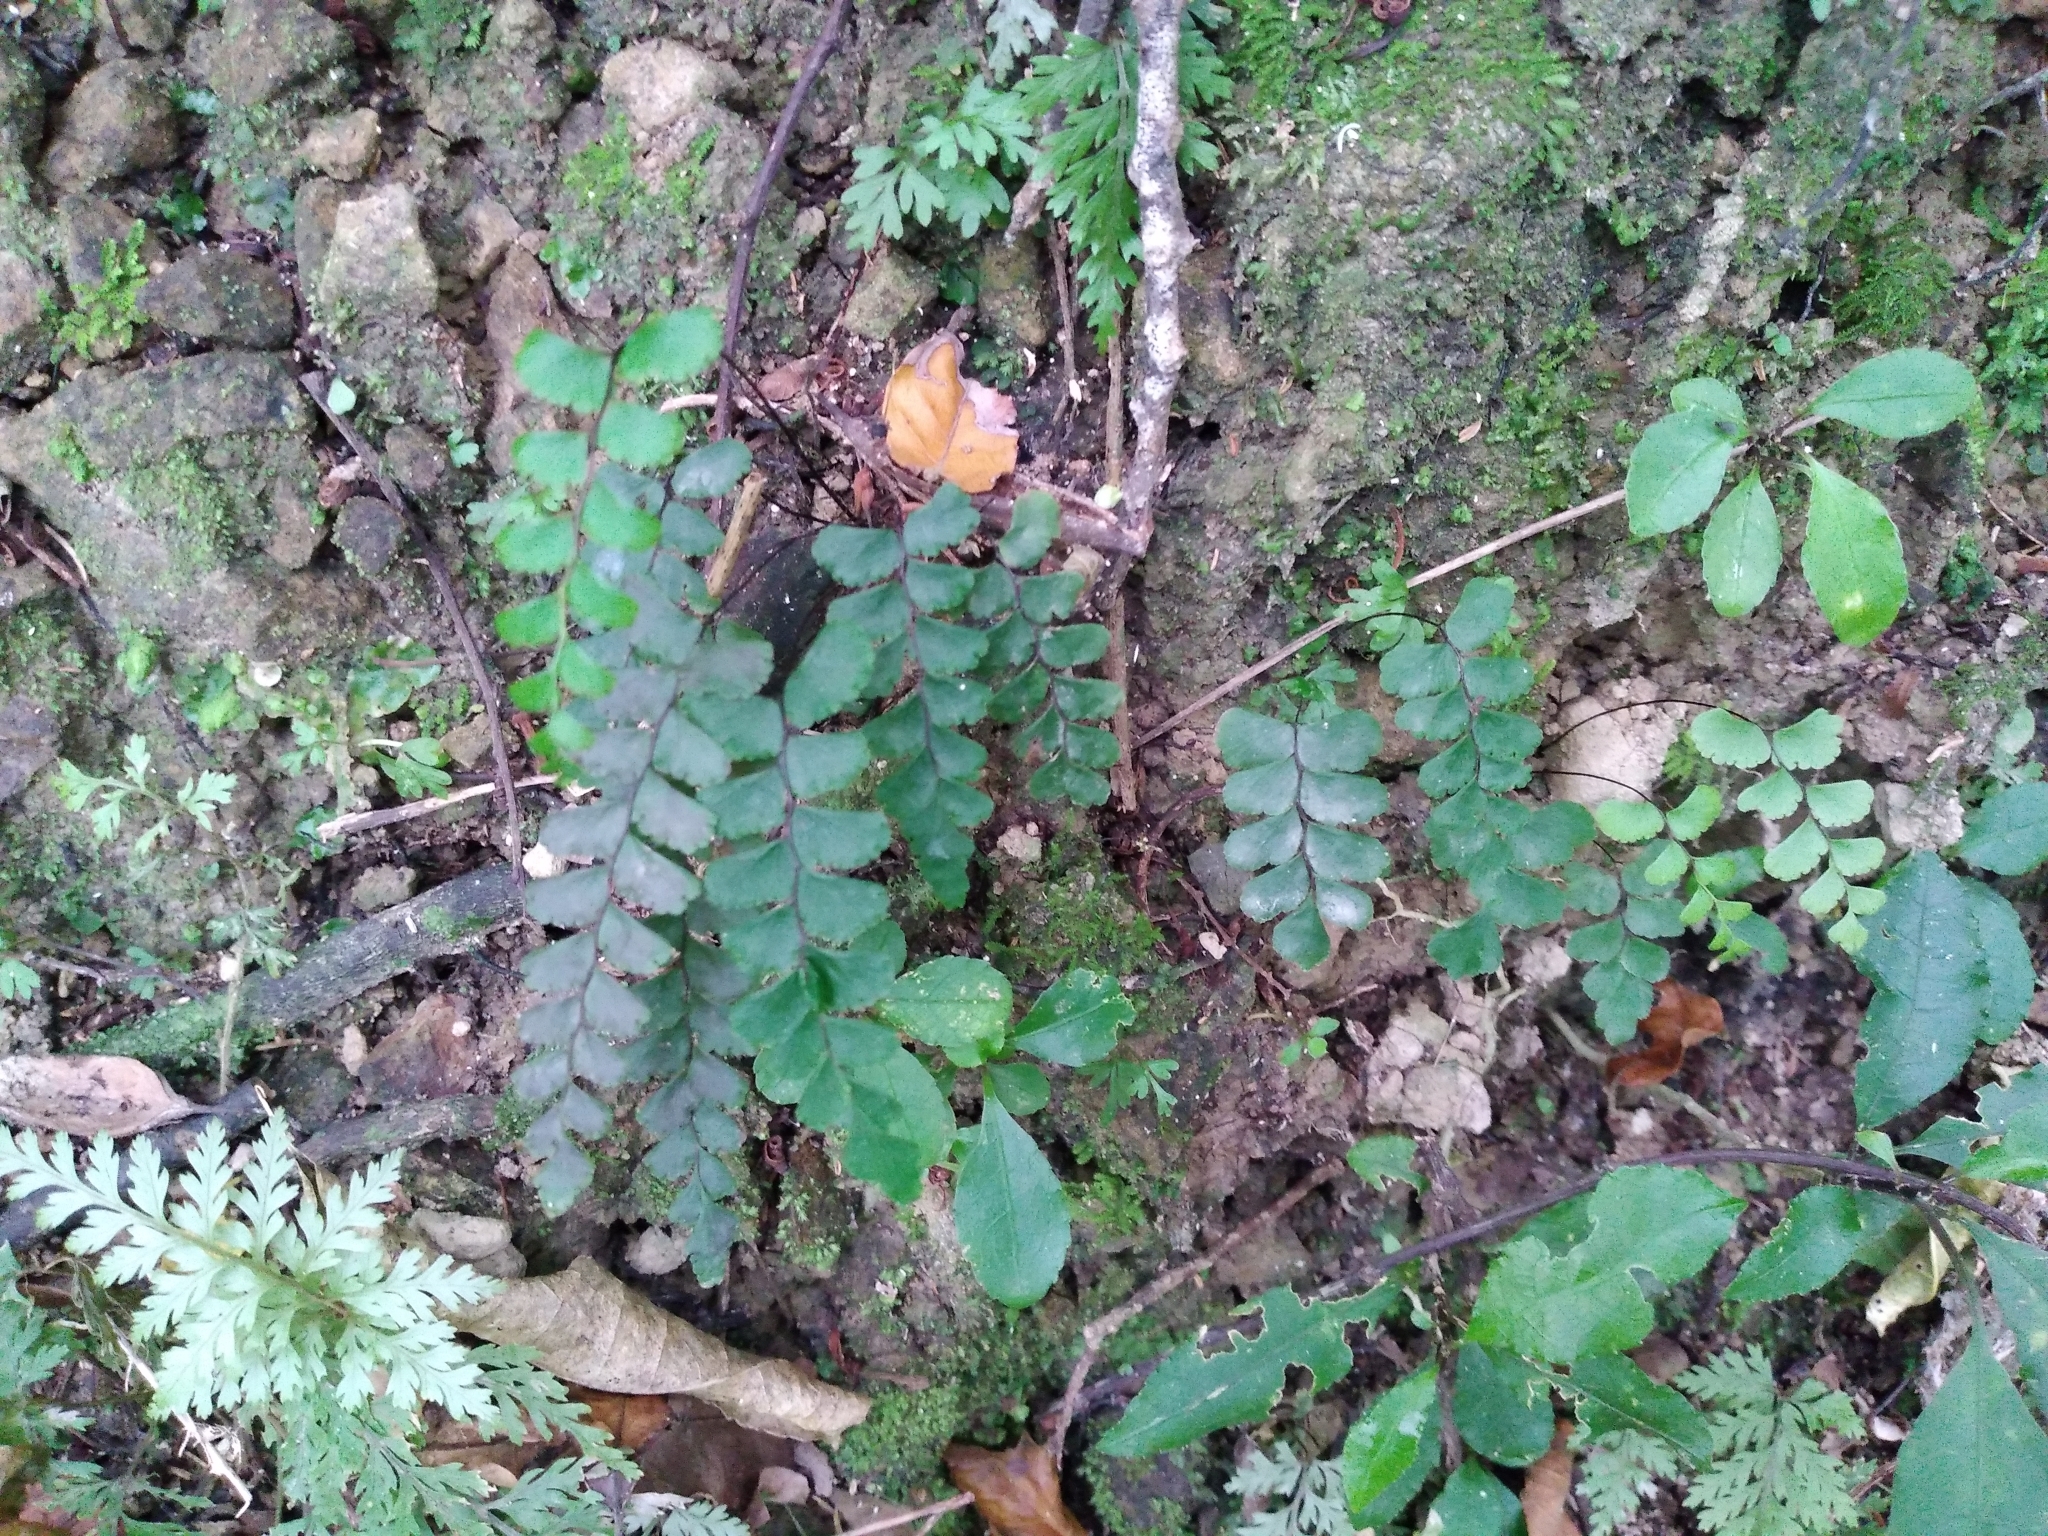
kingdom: Plantae
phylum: Tracheophyta
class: Polypodiopsida
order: Polypodiales
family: Pteridaceae
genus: Adiantum
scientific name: Adiantum diaphanum
